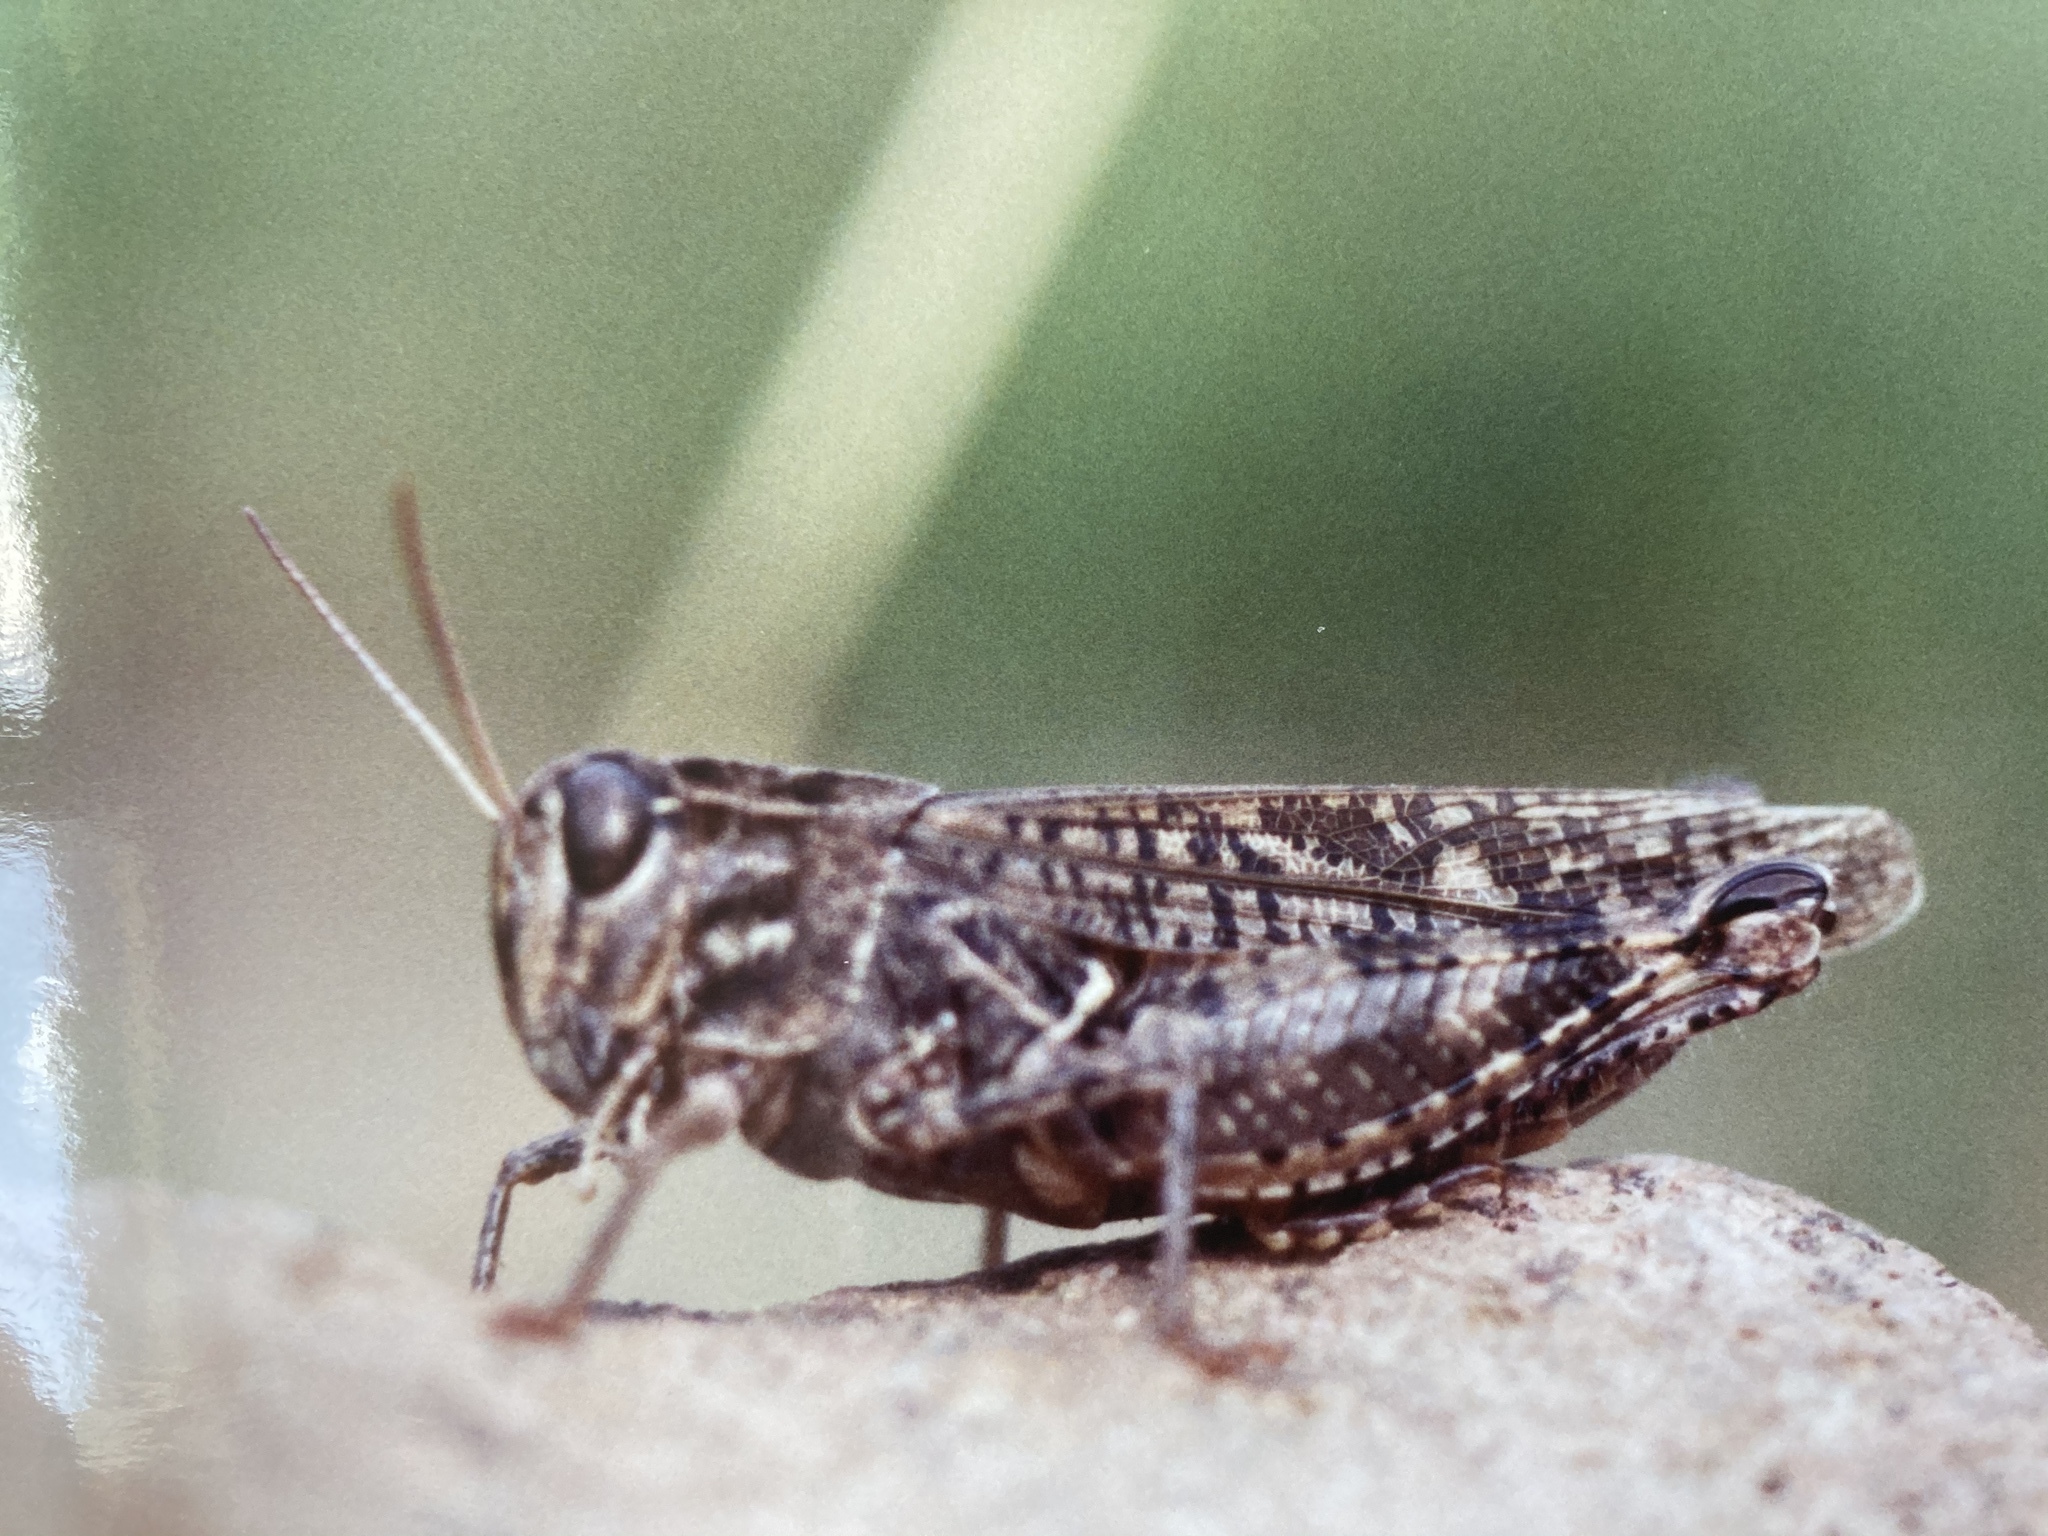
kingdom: Animalia
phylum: Arthropoda
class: Insecta
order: Orthoptera
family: Acrididae
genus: Calliptamus
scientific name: Calliptamus italicus
